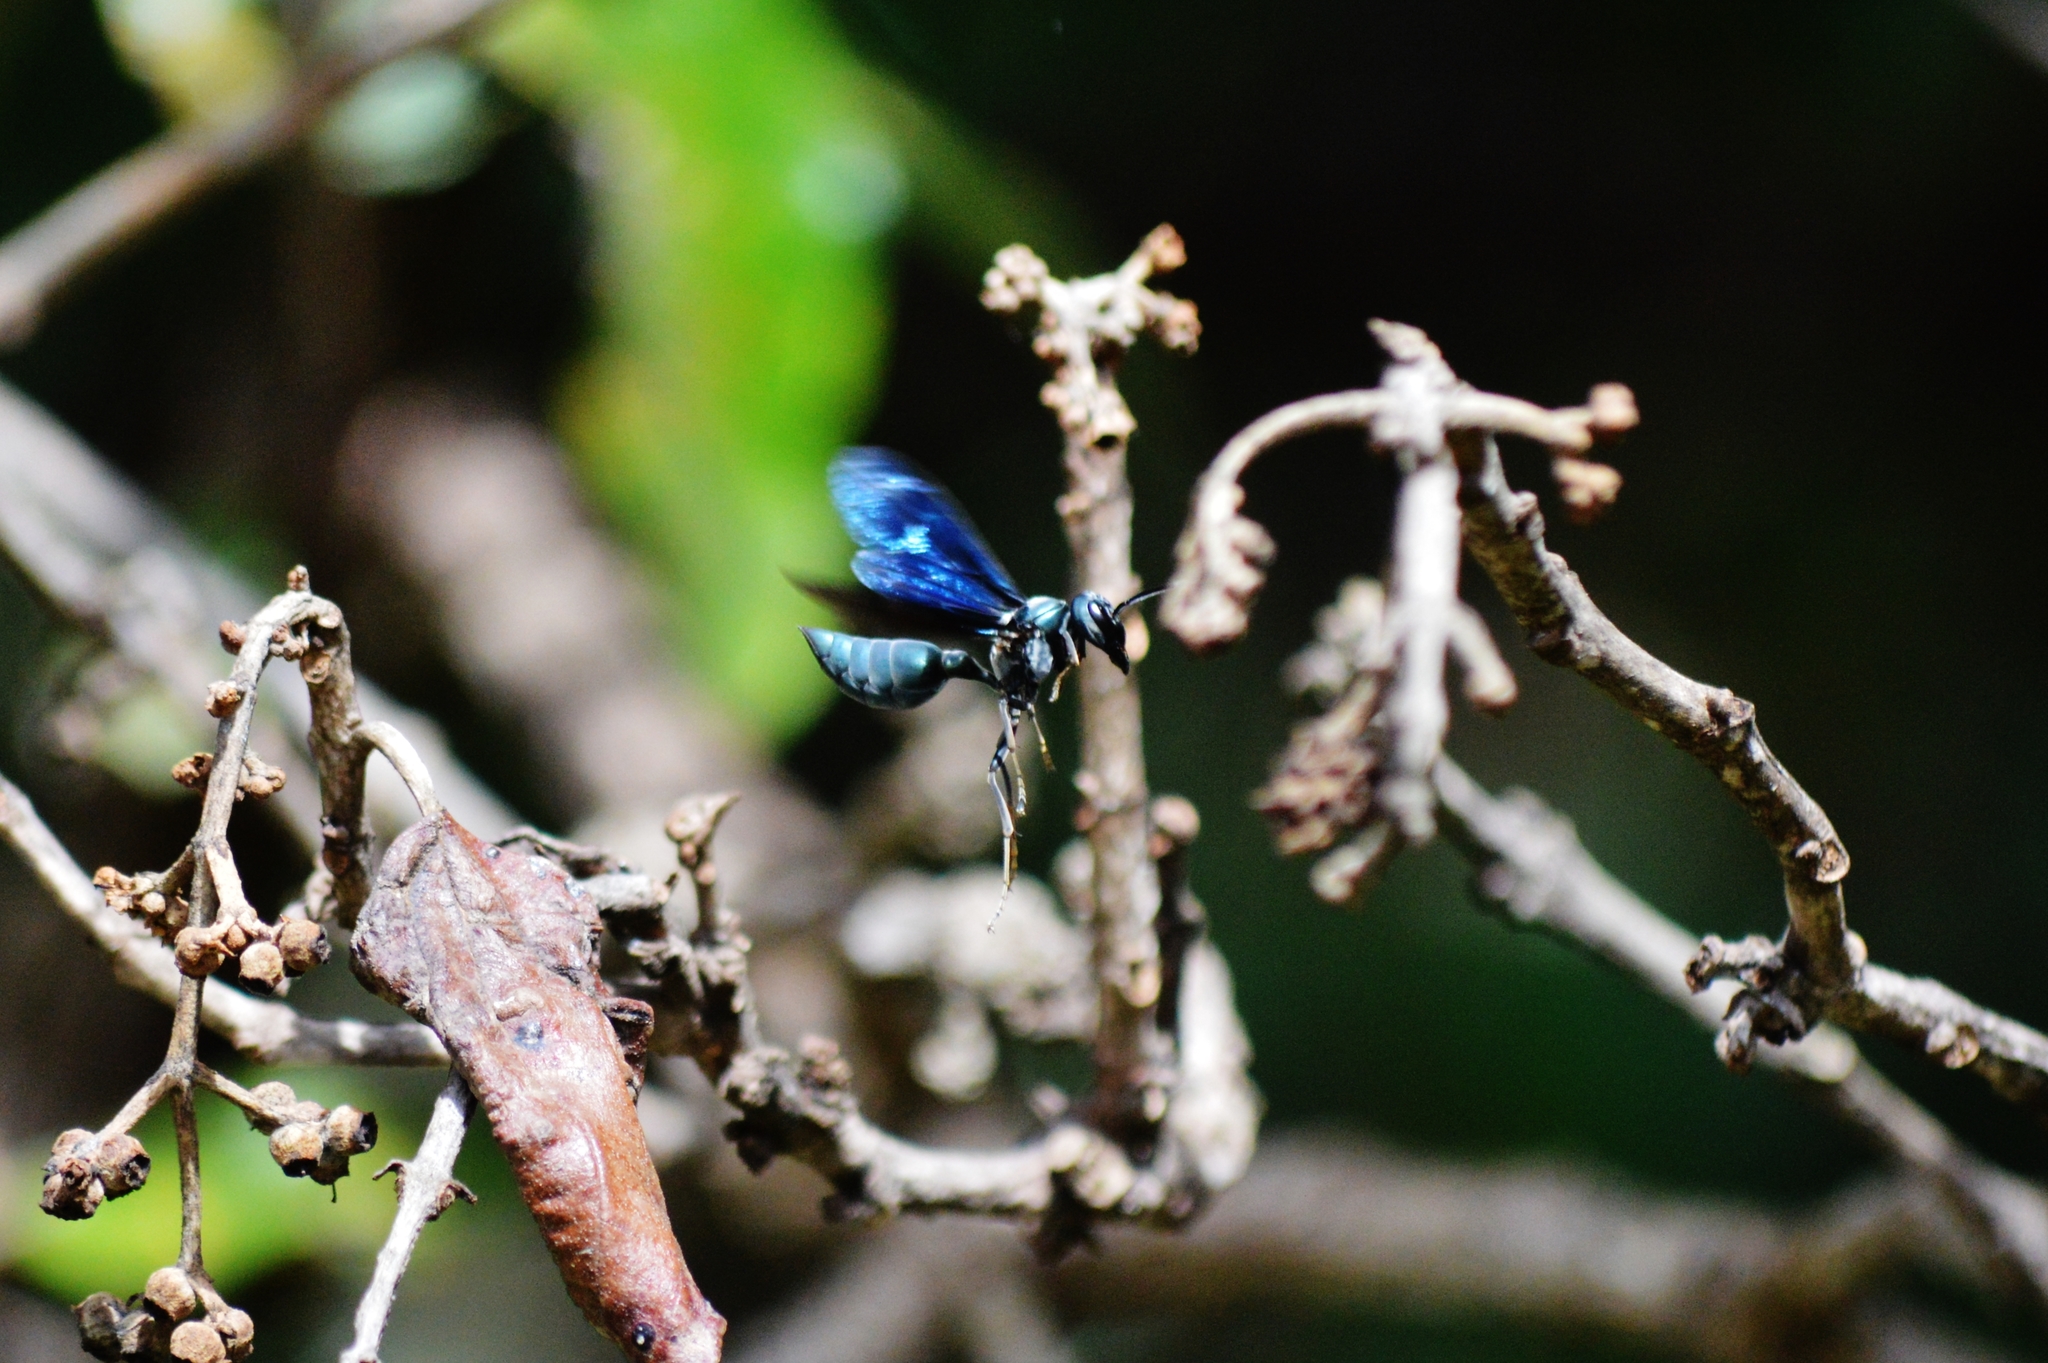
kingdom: Animalia
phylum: Arthropoda
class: Insecta
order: Hymenoptera
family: Vespidae
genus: Synoeca
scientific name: Synoeca surinama
